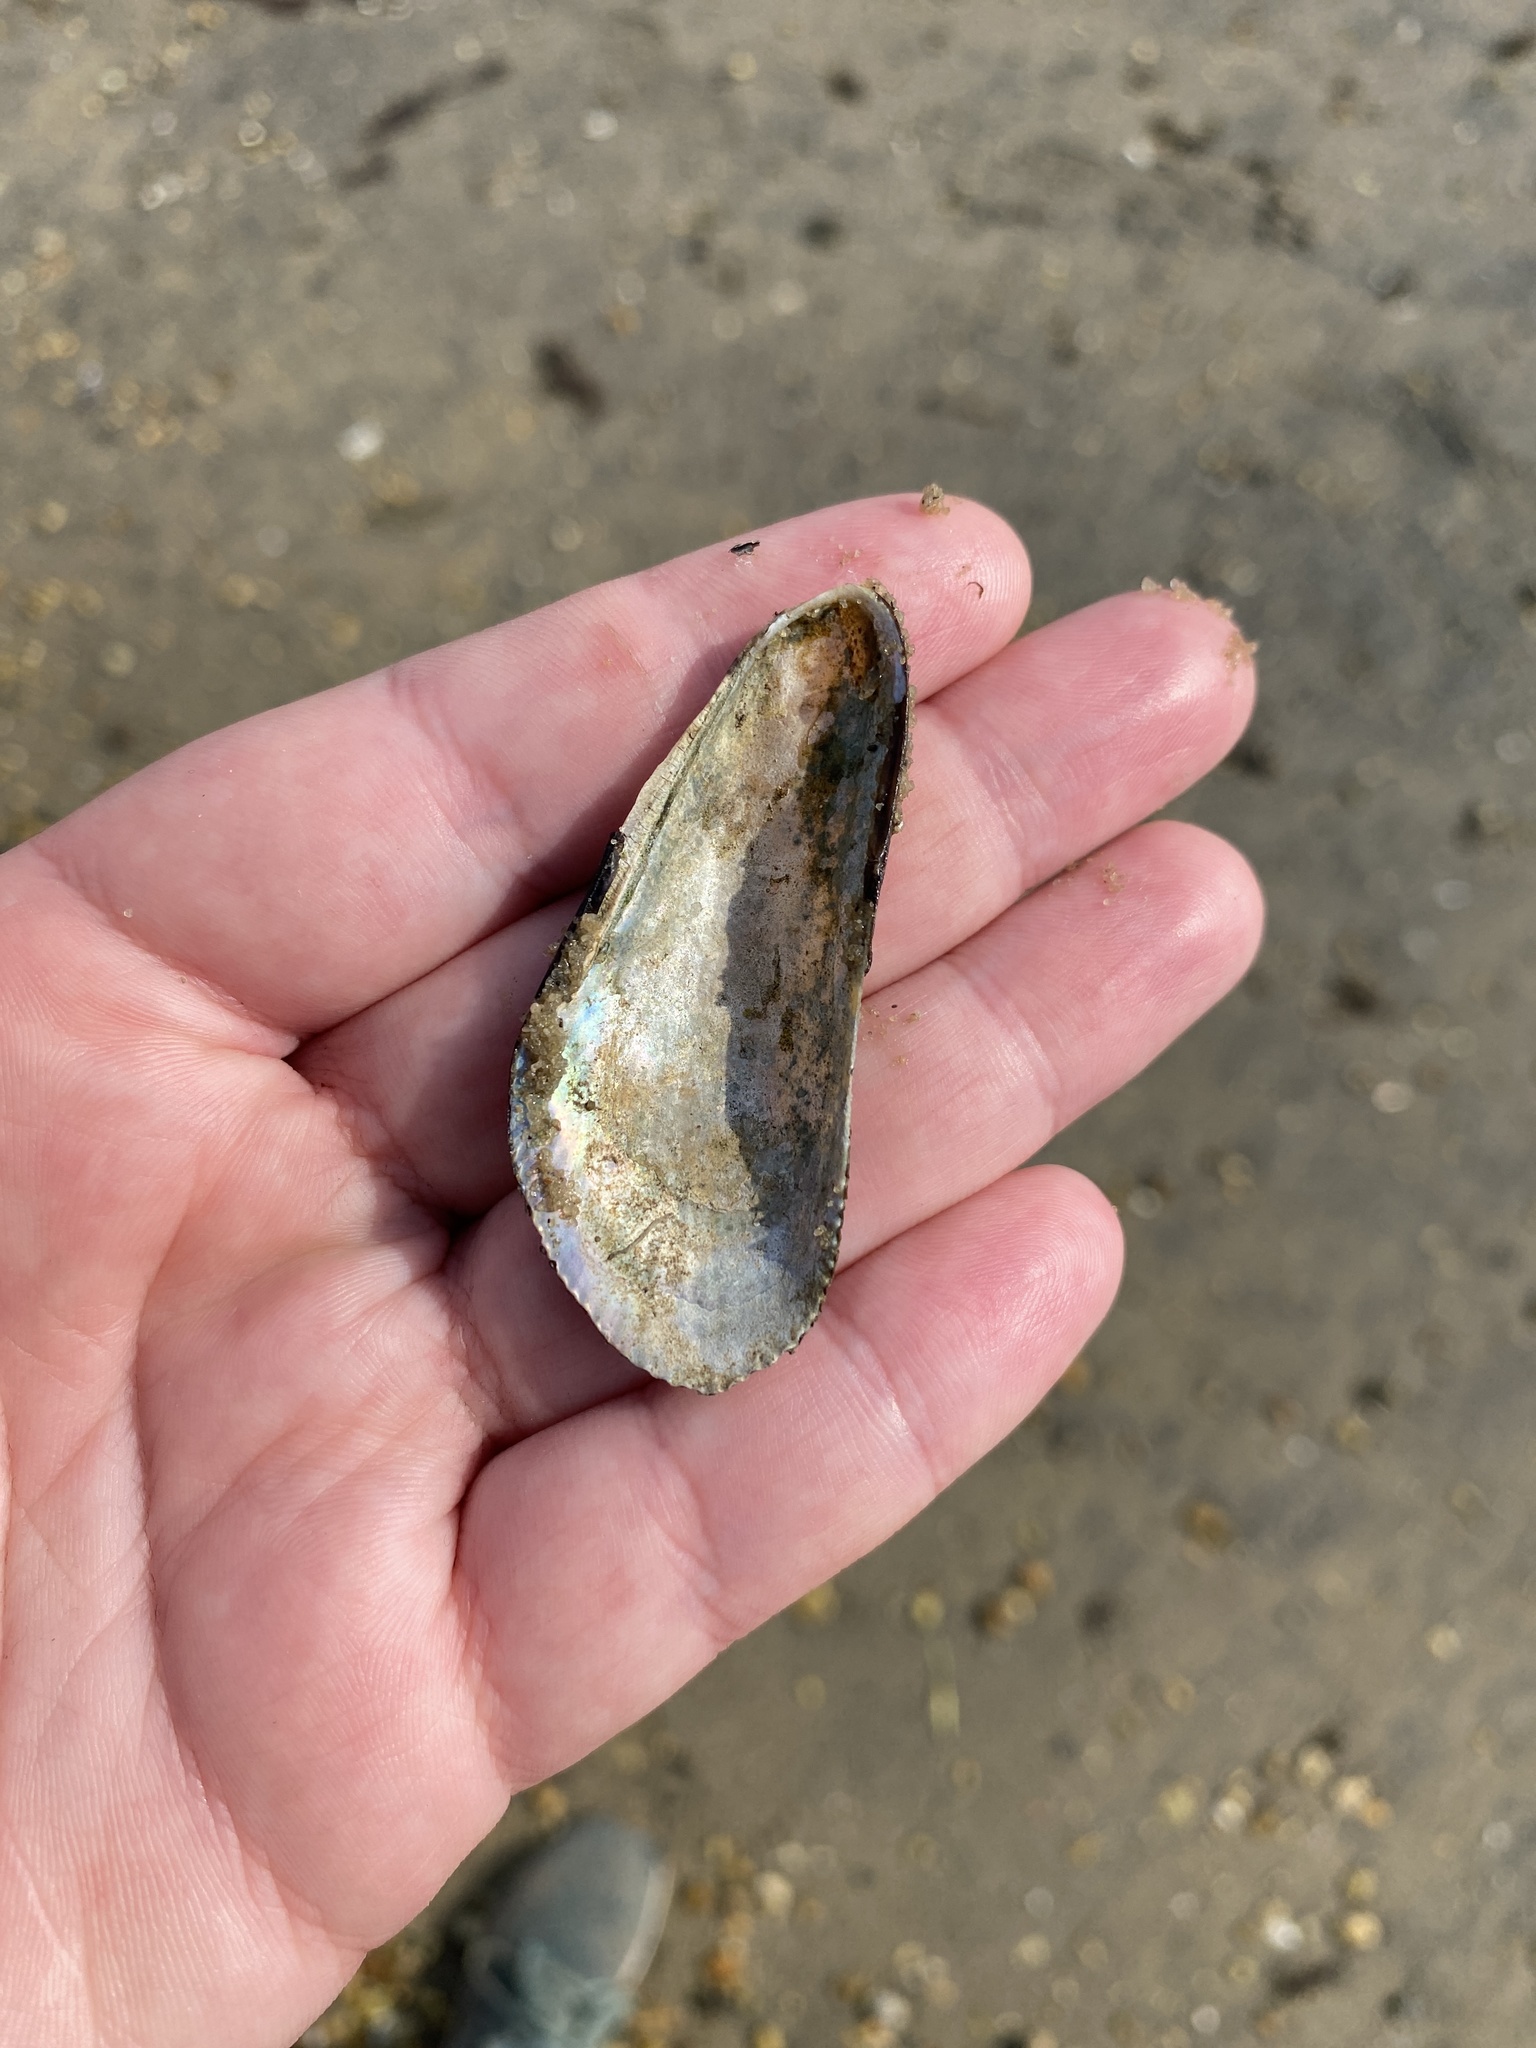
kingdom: Animalia
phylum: Mollusca
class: Bivalvia
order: Mytilida
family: Mytilidae
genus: Geukensia
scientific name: Geukensia demissa
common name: Ribbed mussel
